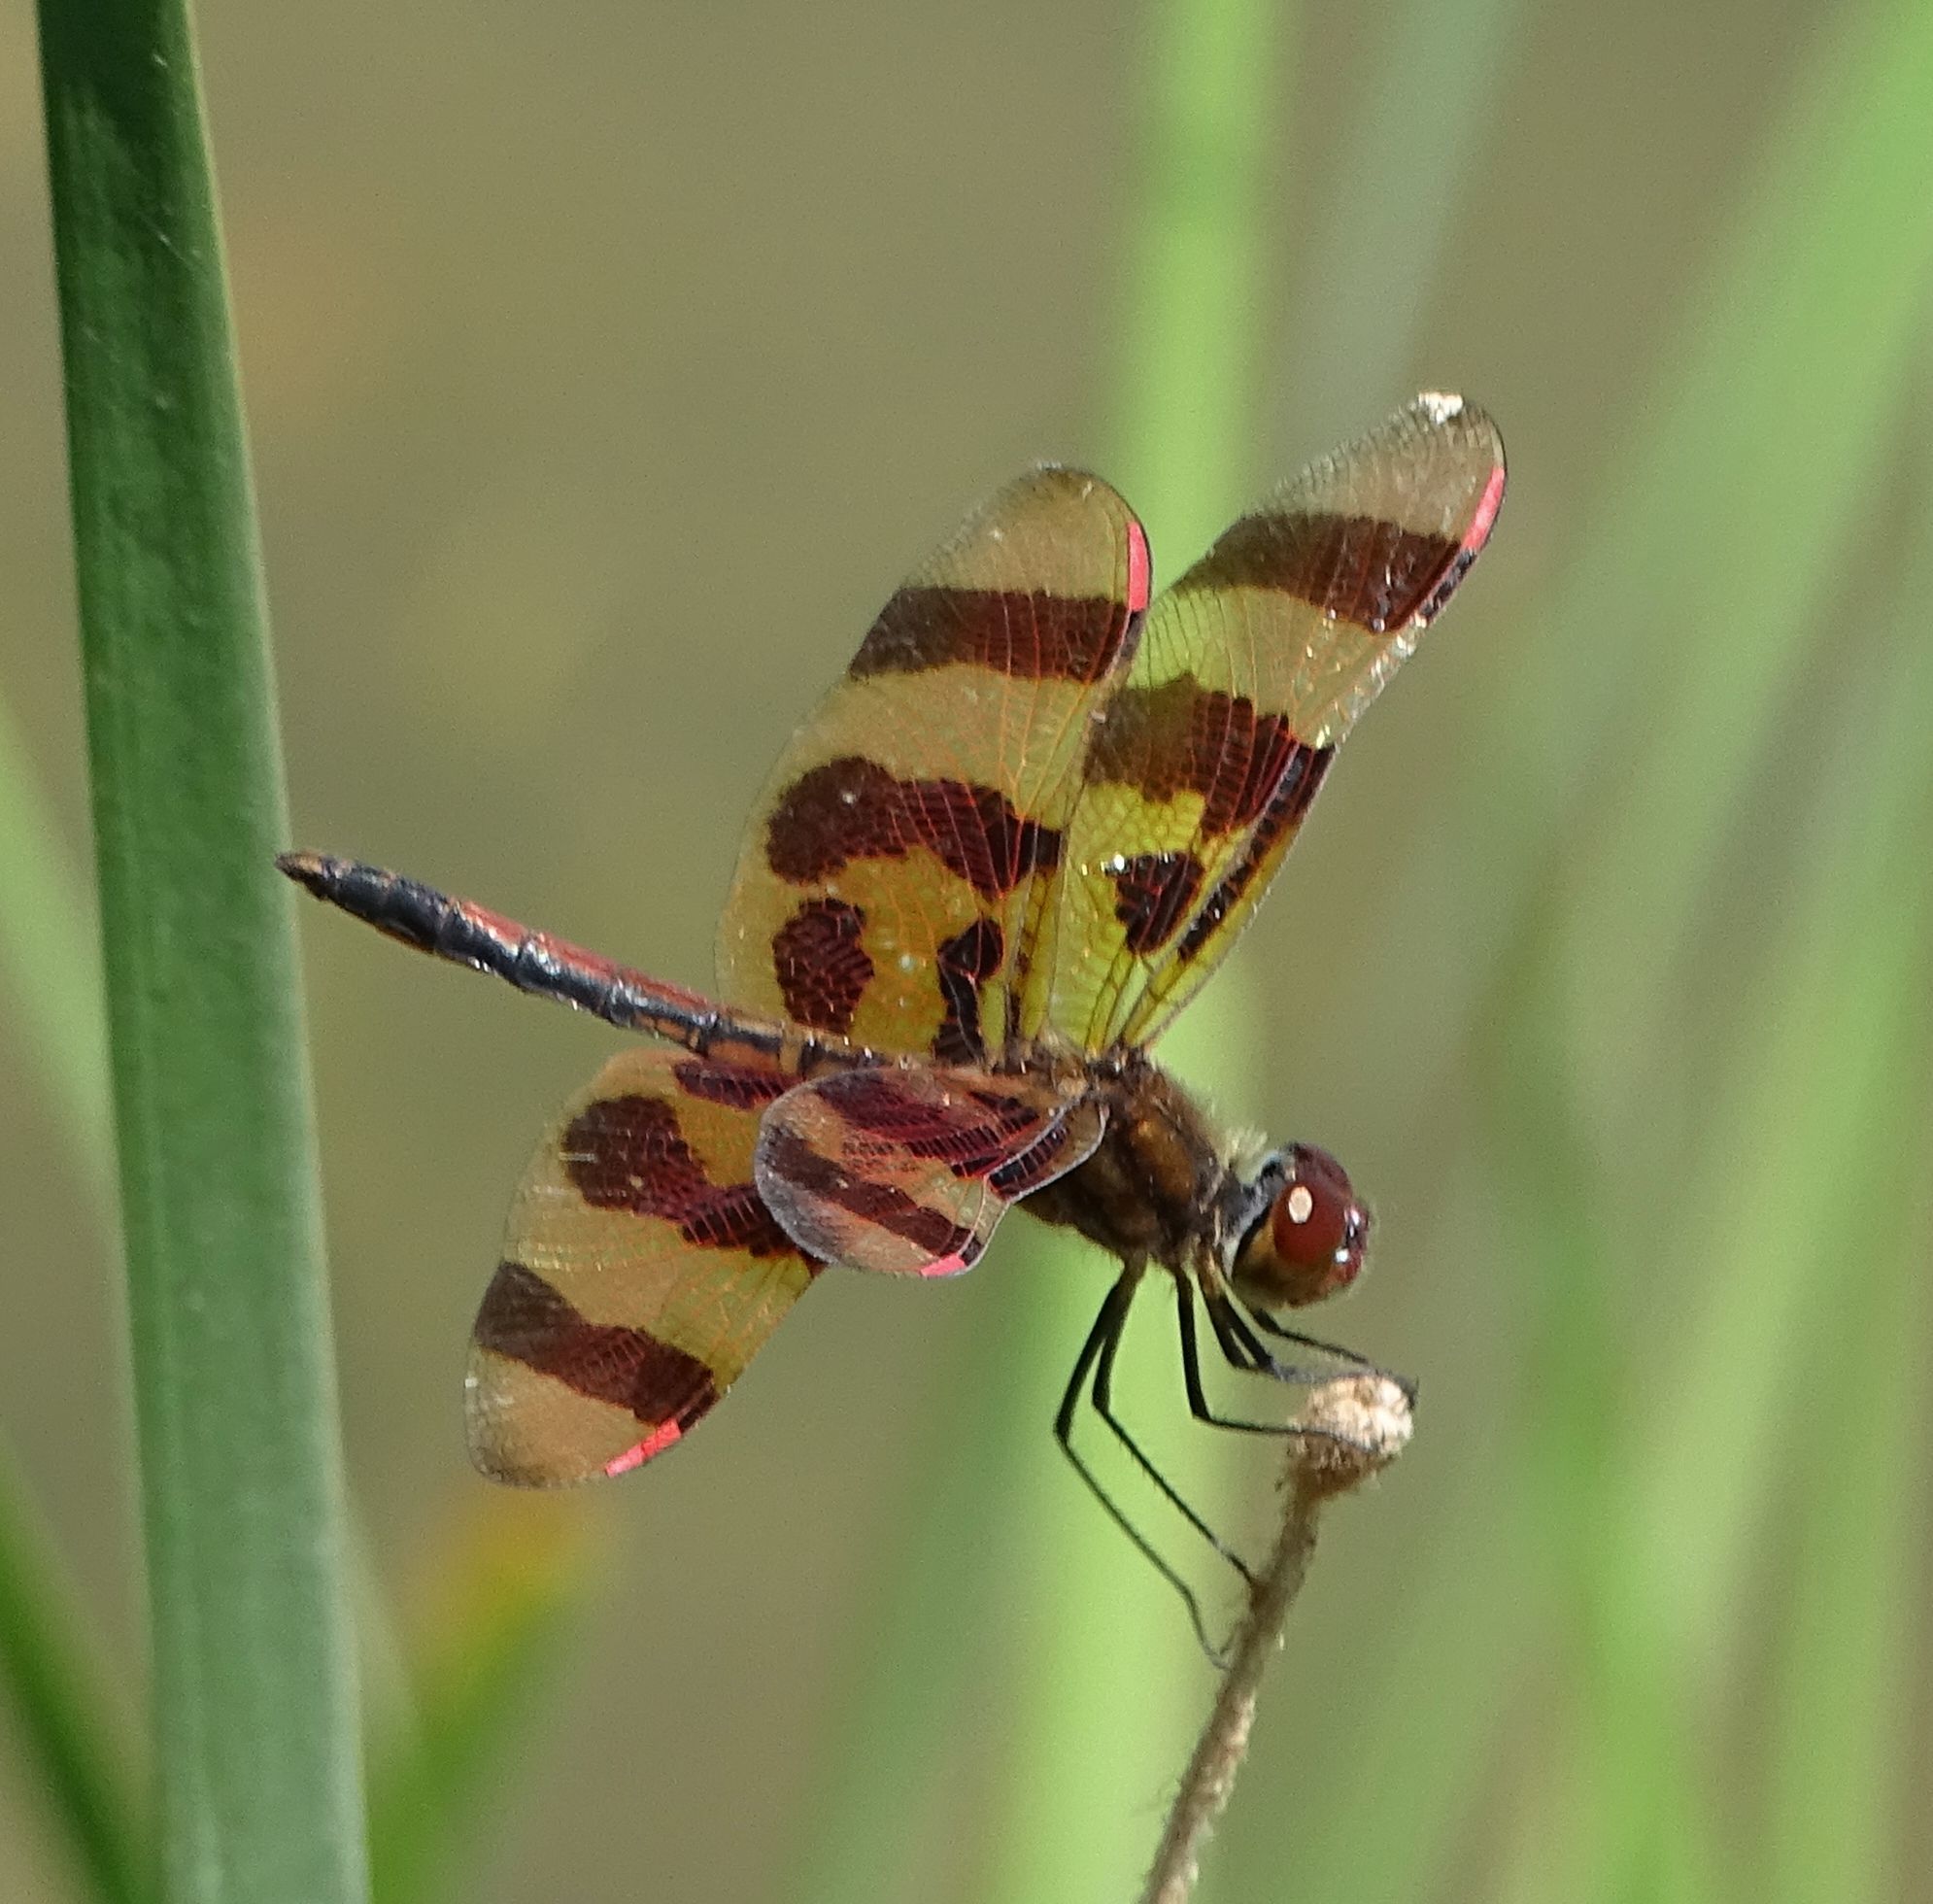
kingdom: Animalia
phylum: Arthropoda
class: Insecta
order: Odonata
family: Libellulidae
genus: Celithemis
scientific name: Celithemis eponina
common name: Halloween pennant
